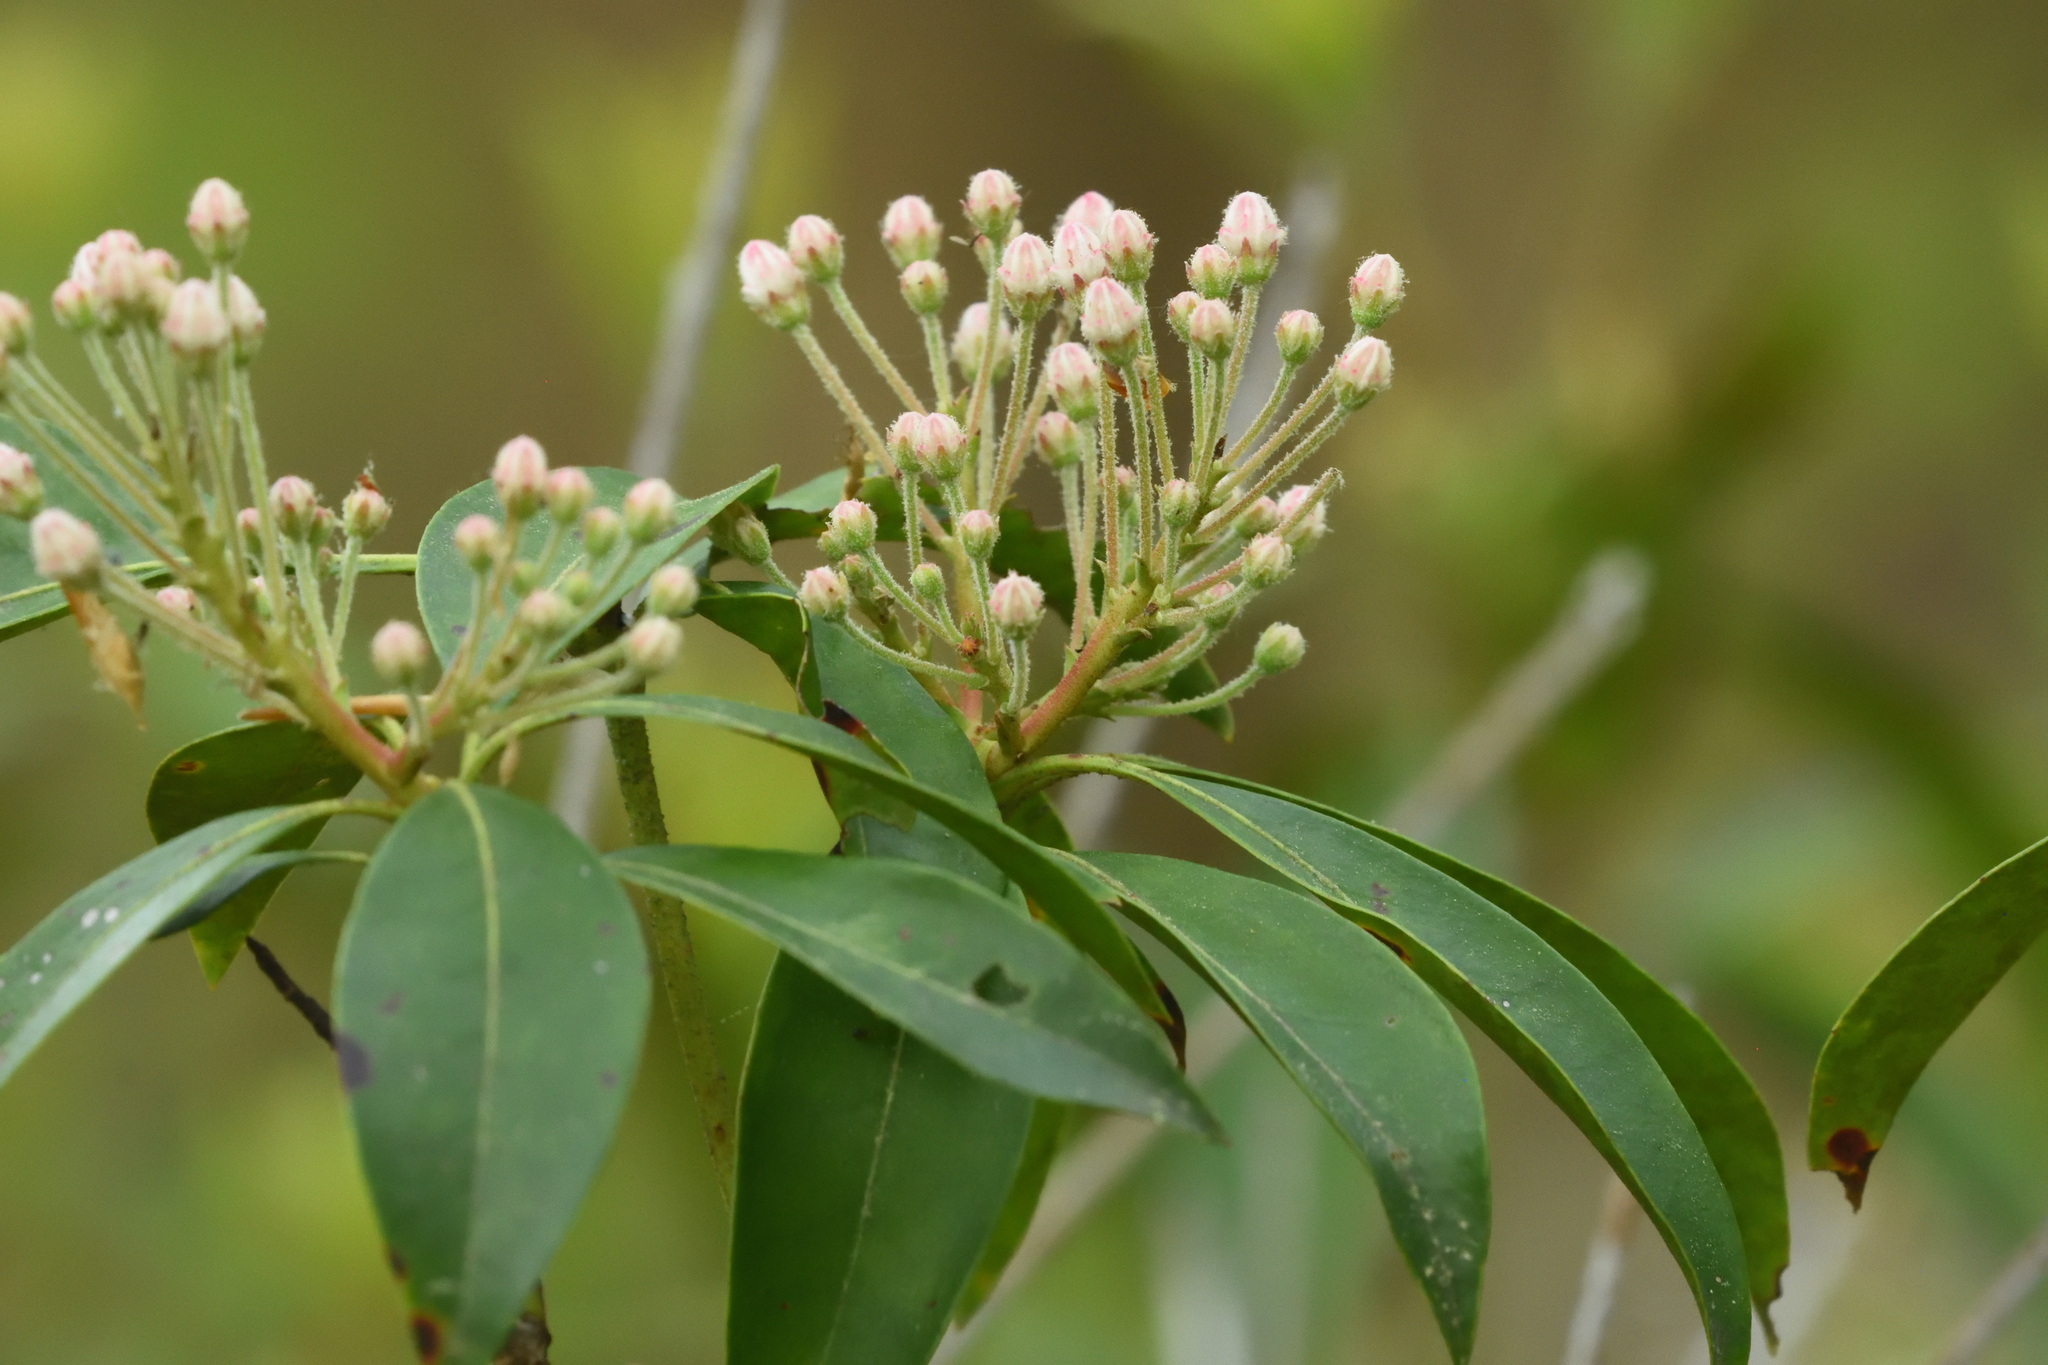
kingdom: Plantae
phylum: Tracheophyta
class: Magnoliopsida
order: Ericales
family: Ericaceae
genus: Kalmia
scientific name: Kalmia latifolia
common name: Mountain-laurel
